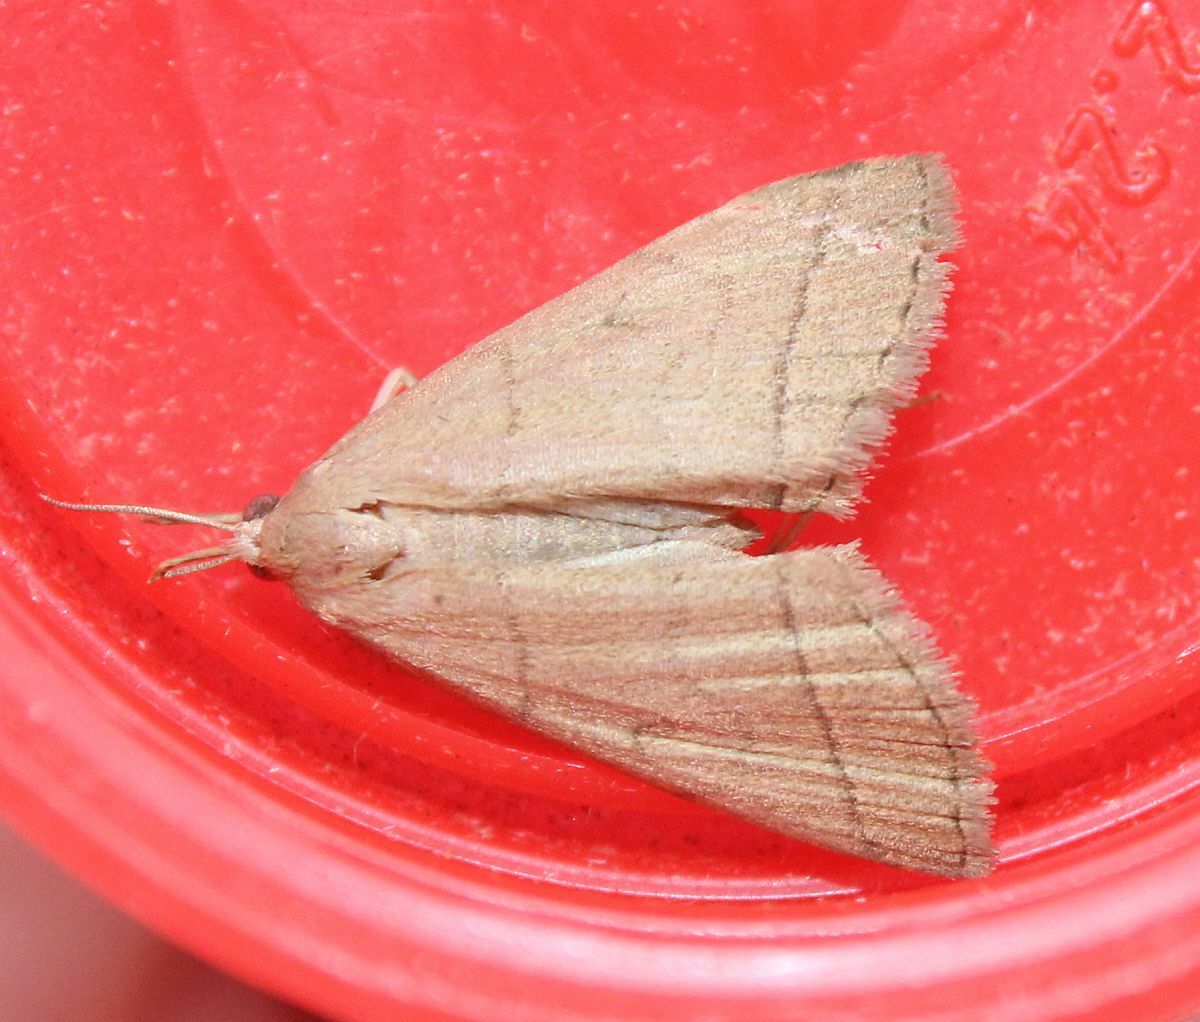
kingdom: Animalia
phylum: Arthropoda
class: Insecta
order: Lepidoptera
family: Erebidae
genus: Herminia
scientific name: Herminia tarsipennalis
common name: Fan-foot
